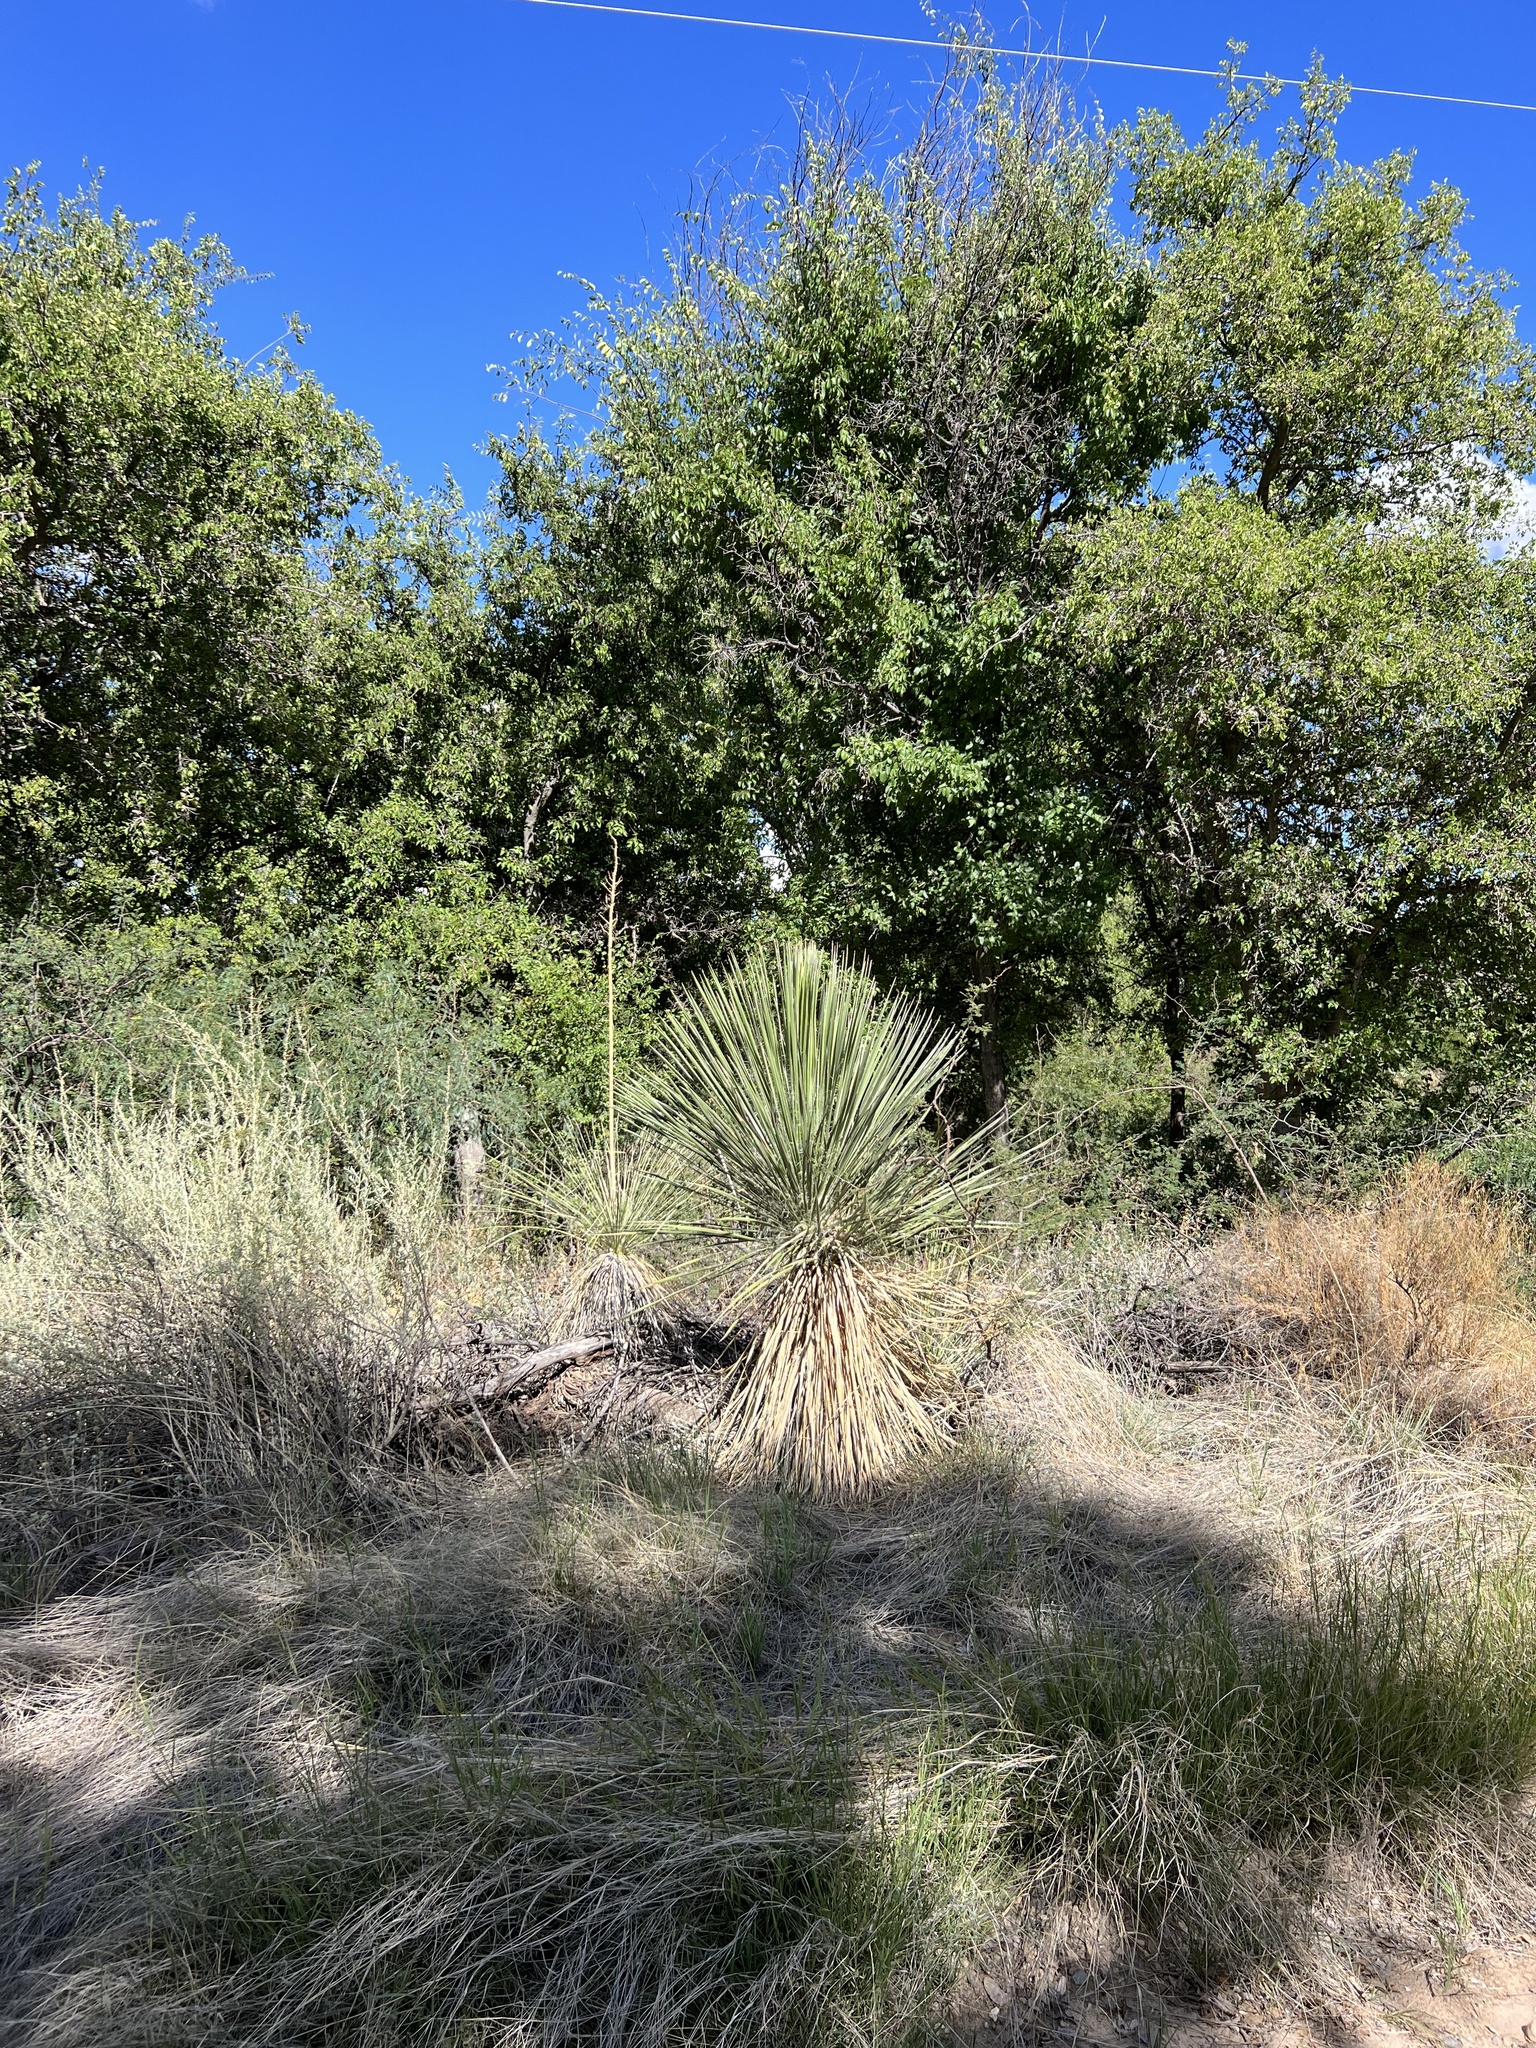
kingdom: Plantae
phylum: Tracheophyta
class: Liliopsida
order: Asparagales
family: Asparagaceae
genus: Yucca
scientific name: Yucca elata
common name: Palmella
